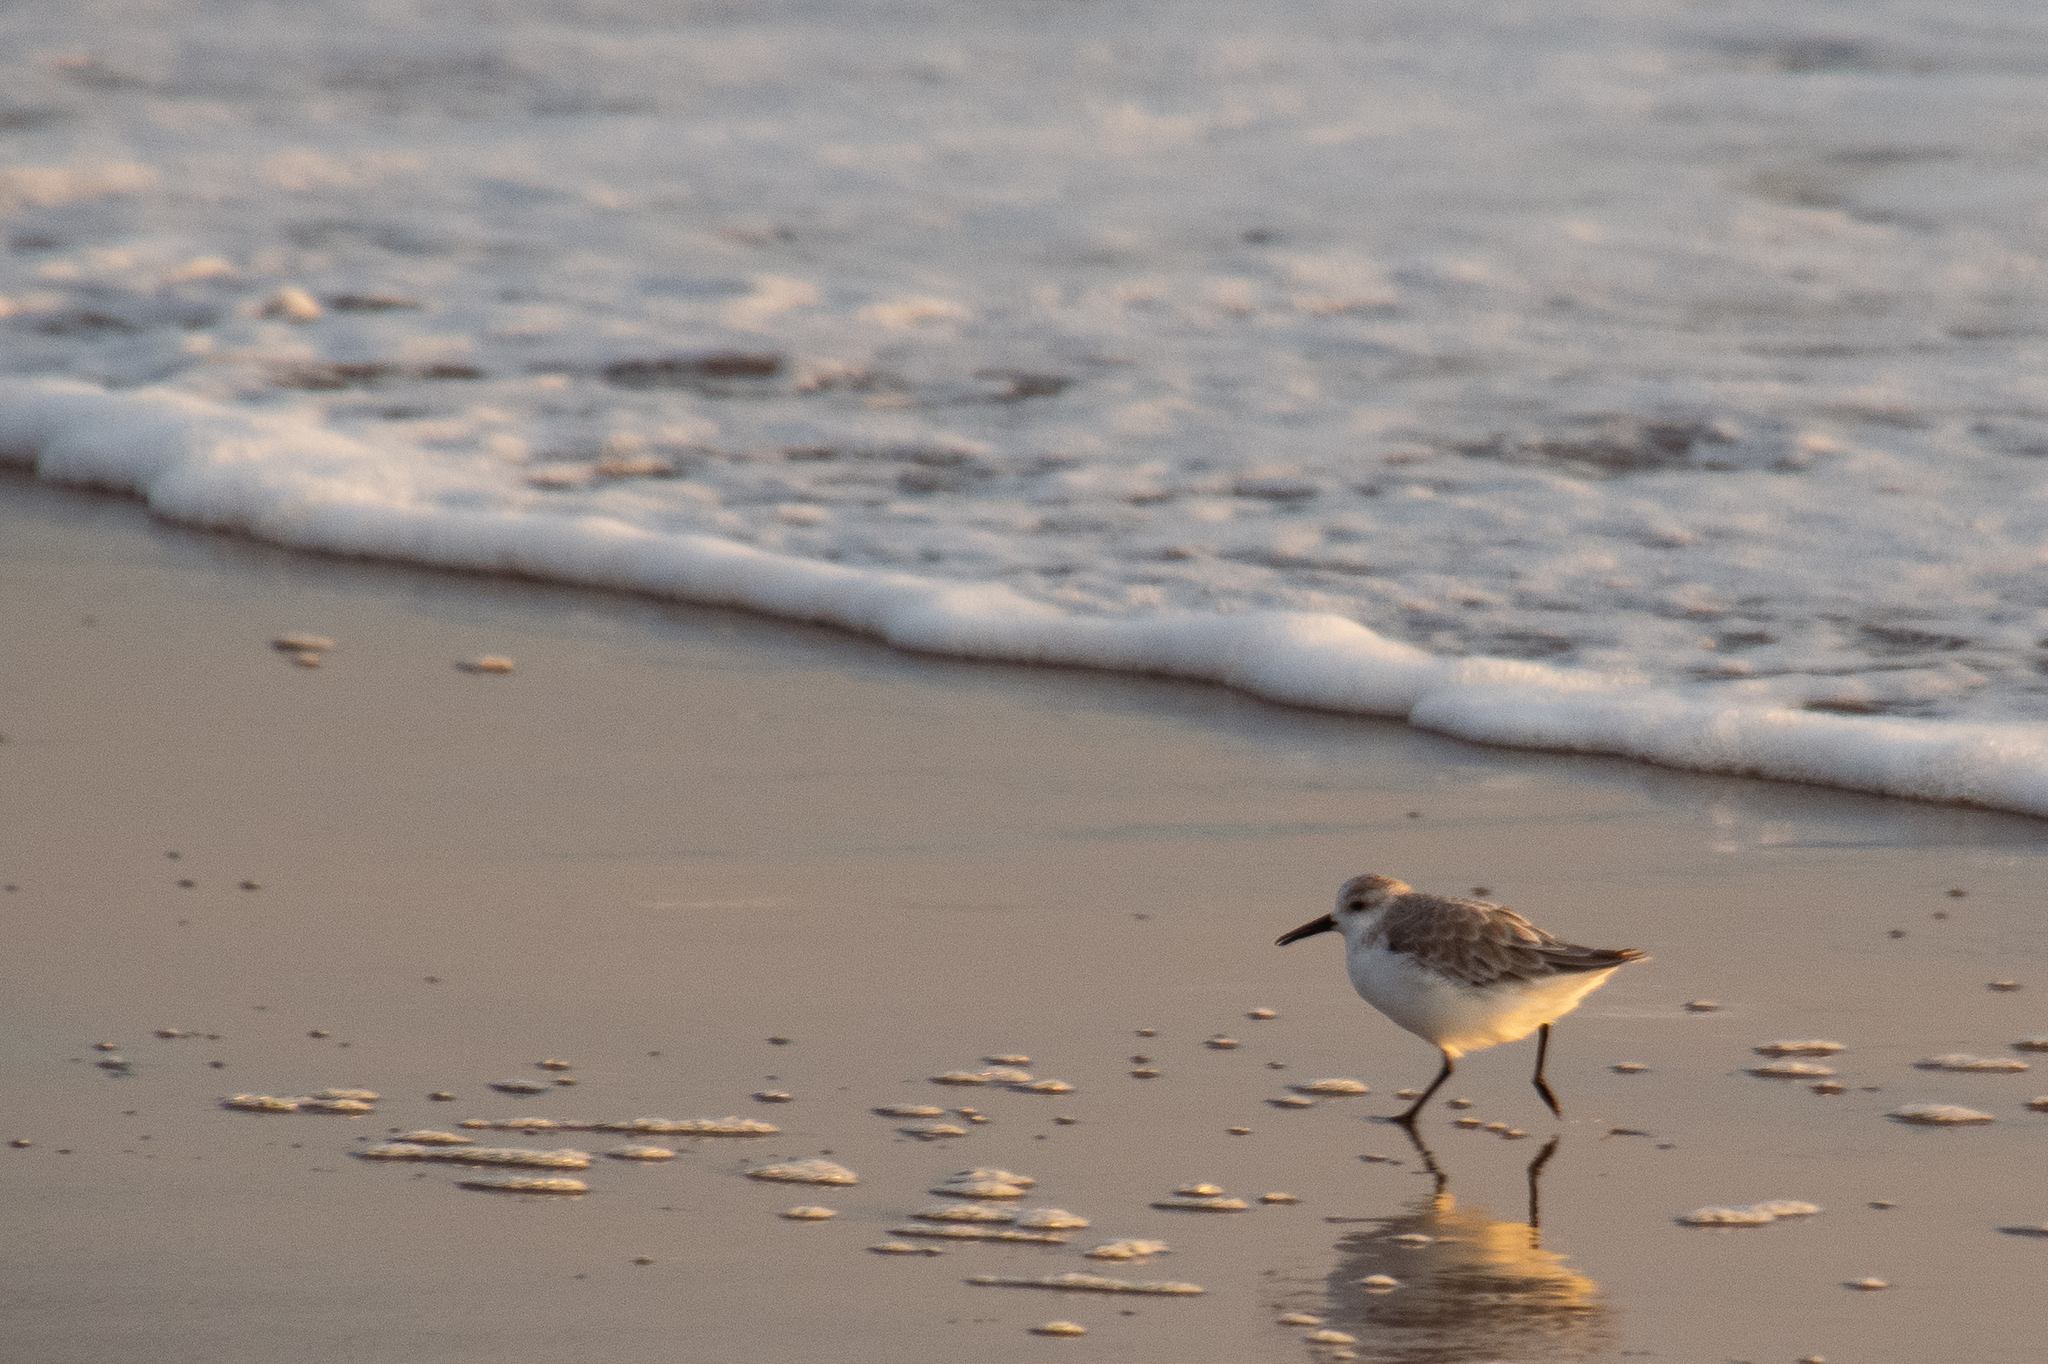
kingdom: Animalia
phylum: Chordata
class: Aves
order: Charadriiformes
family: Scolopacidae
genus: Calidris
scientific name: Calidris alba
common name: Sanderling
